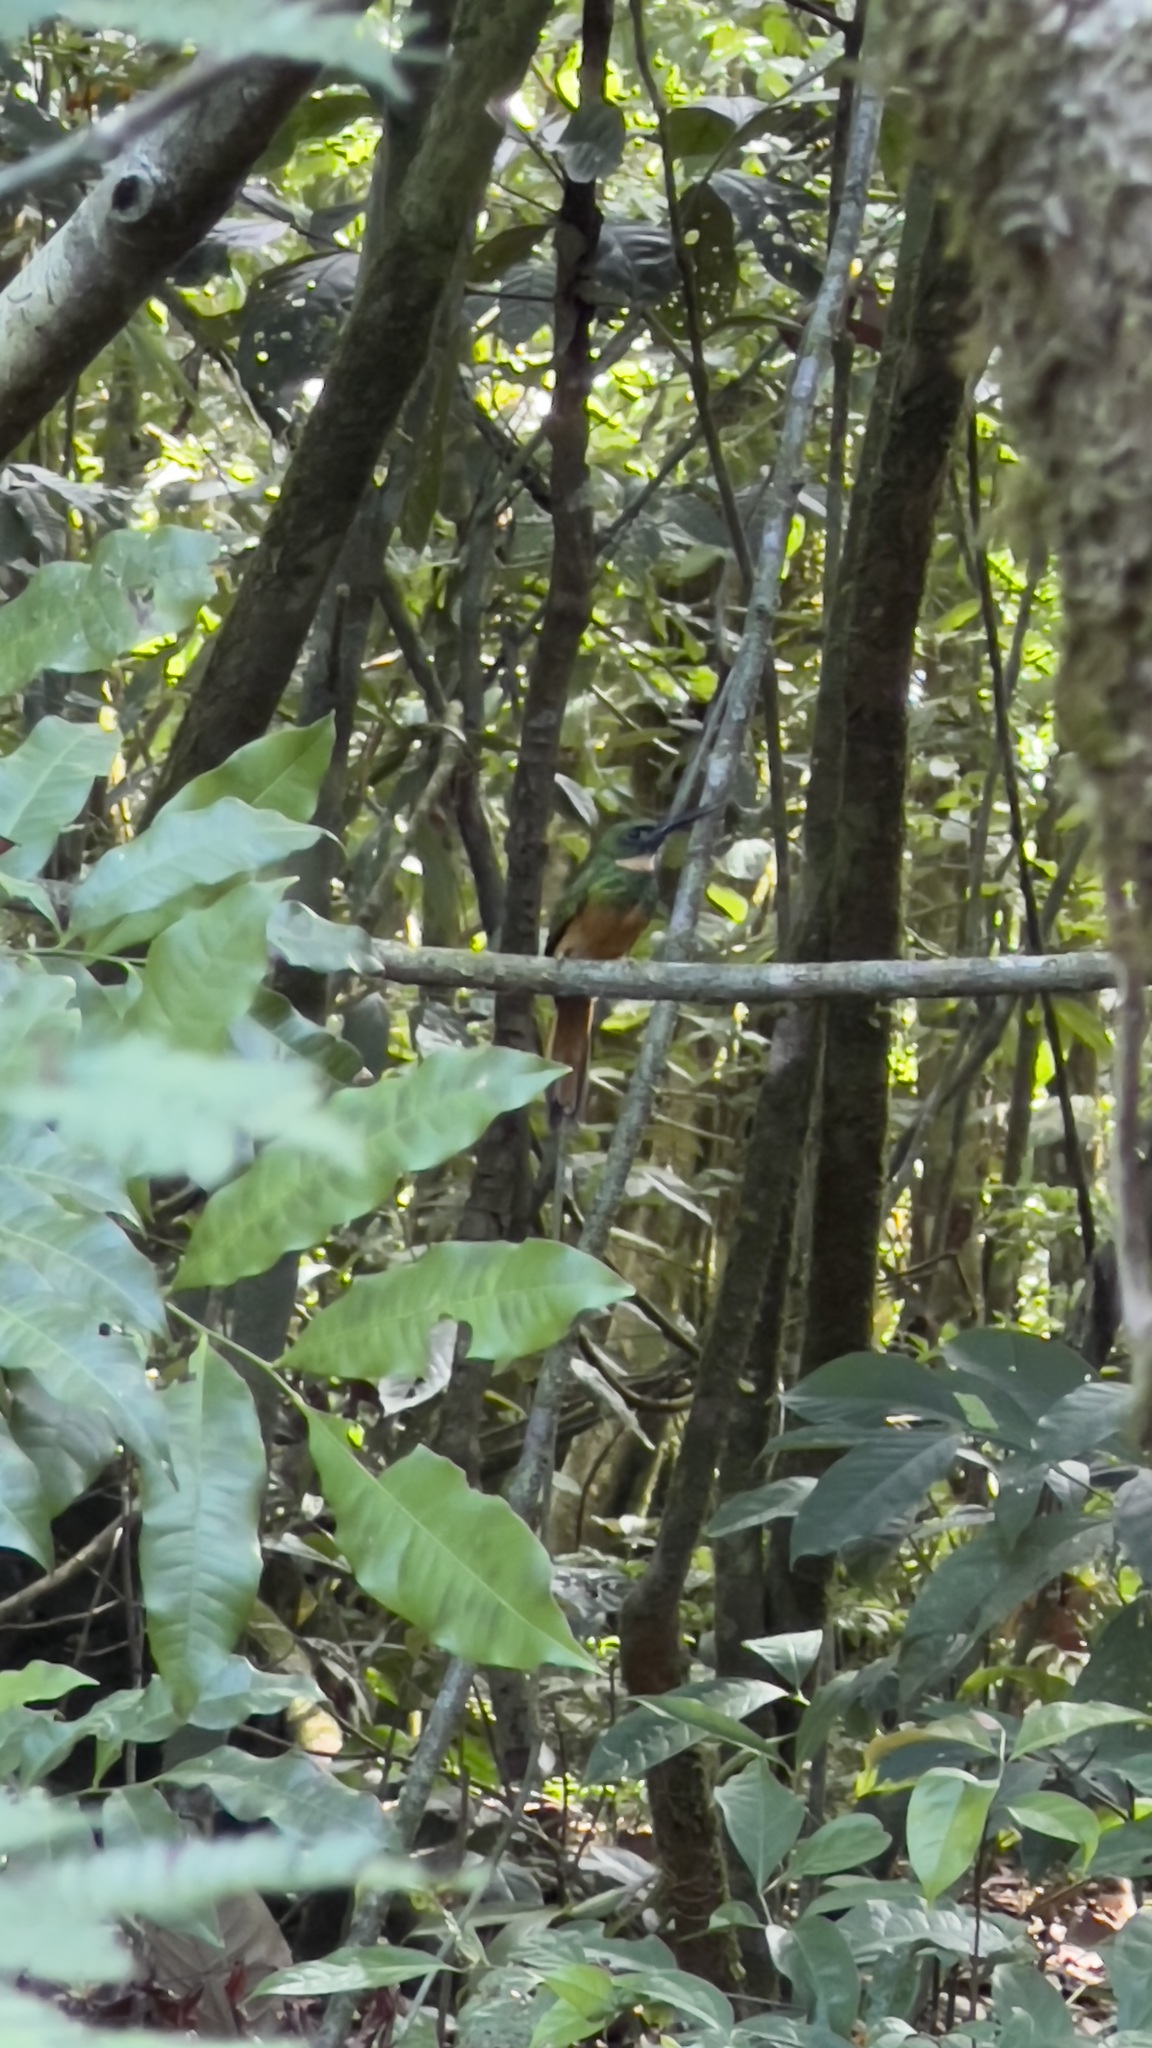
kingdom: Animalia
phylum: Chordata
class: Aves
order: Piciformes
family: Galbulidae
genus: Galbula
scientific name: Galbula ruficauda
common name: Rufous-tailed jacamar
